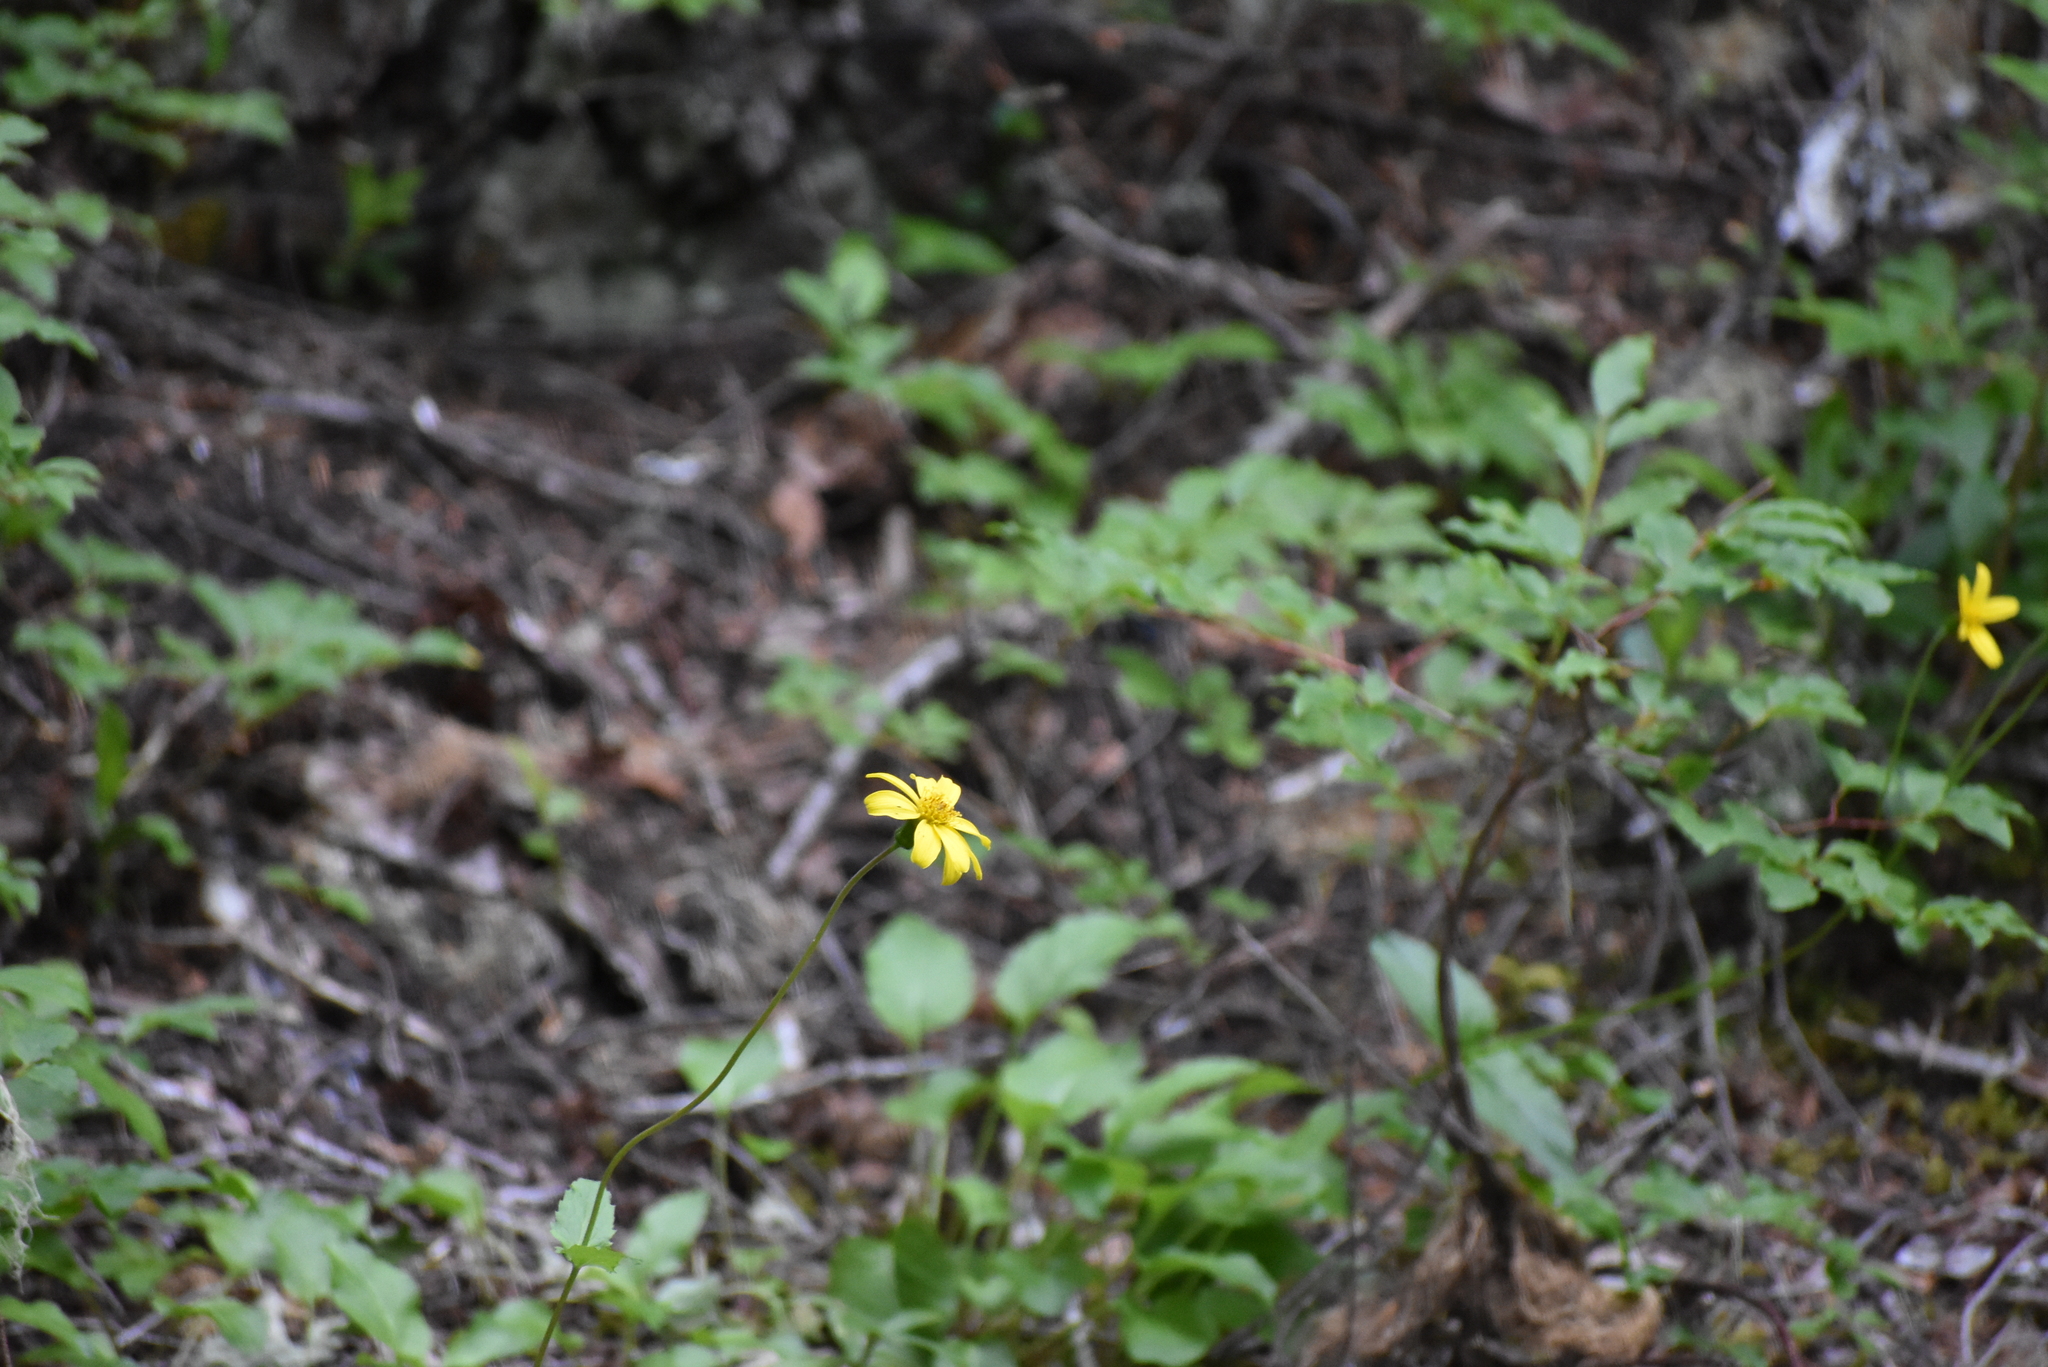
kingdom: Plantae
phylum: Tracheophyta
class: Magnoliopsida
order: Asterales
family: Asteraceae
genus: Arnica
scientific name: Arnica latifolia
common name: Arnica
